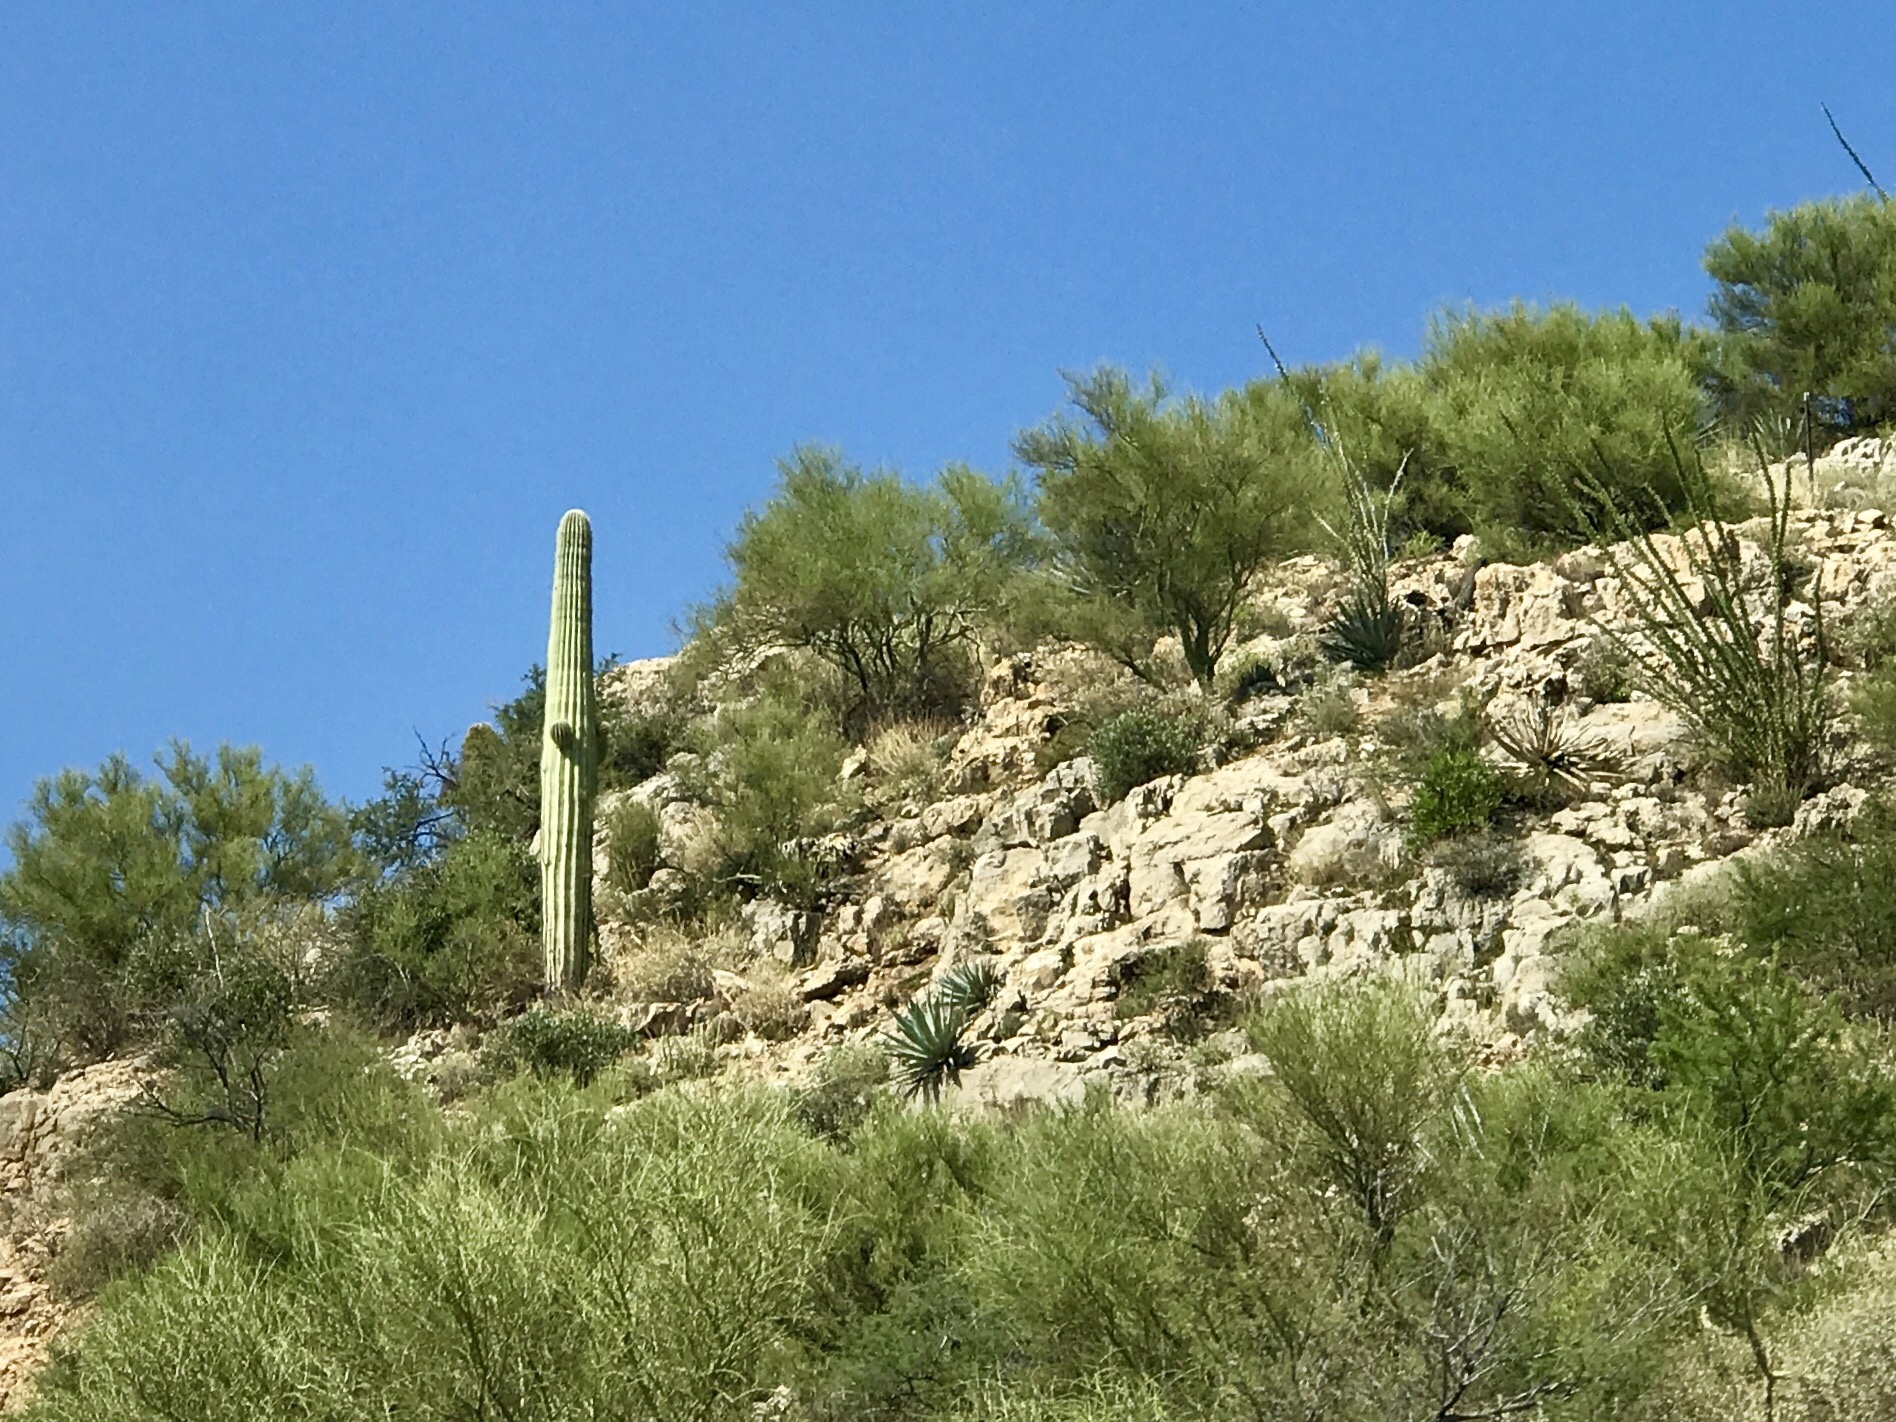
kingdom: Plantae
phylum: Tracheophyta
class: Magnoliopsida
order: Caryophyllales
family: Cactaceae
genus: Carnegiea
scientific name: Carnegiea gigantea
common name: Saguaro
